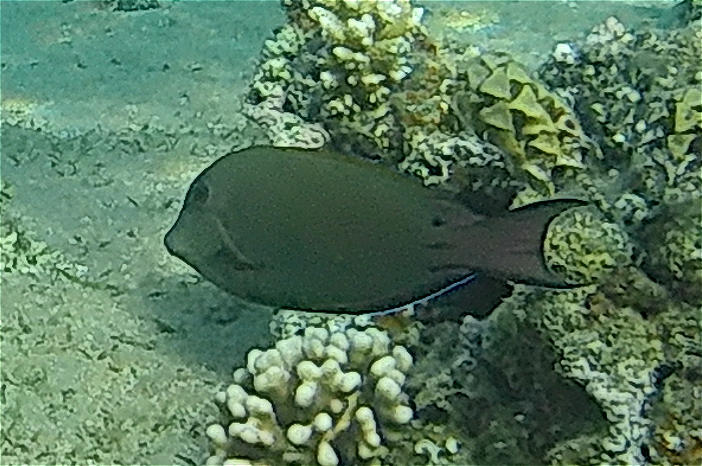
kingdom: Animalia
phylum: Chordata
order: Perciformes
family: Acanthuridae
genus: Acanthurus
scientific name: Acanthurus nigrofuscus
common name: Blackspot surgeonfish
